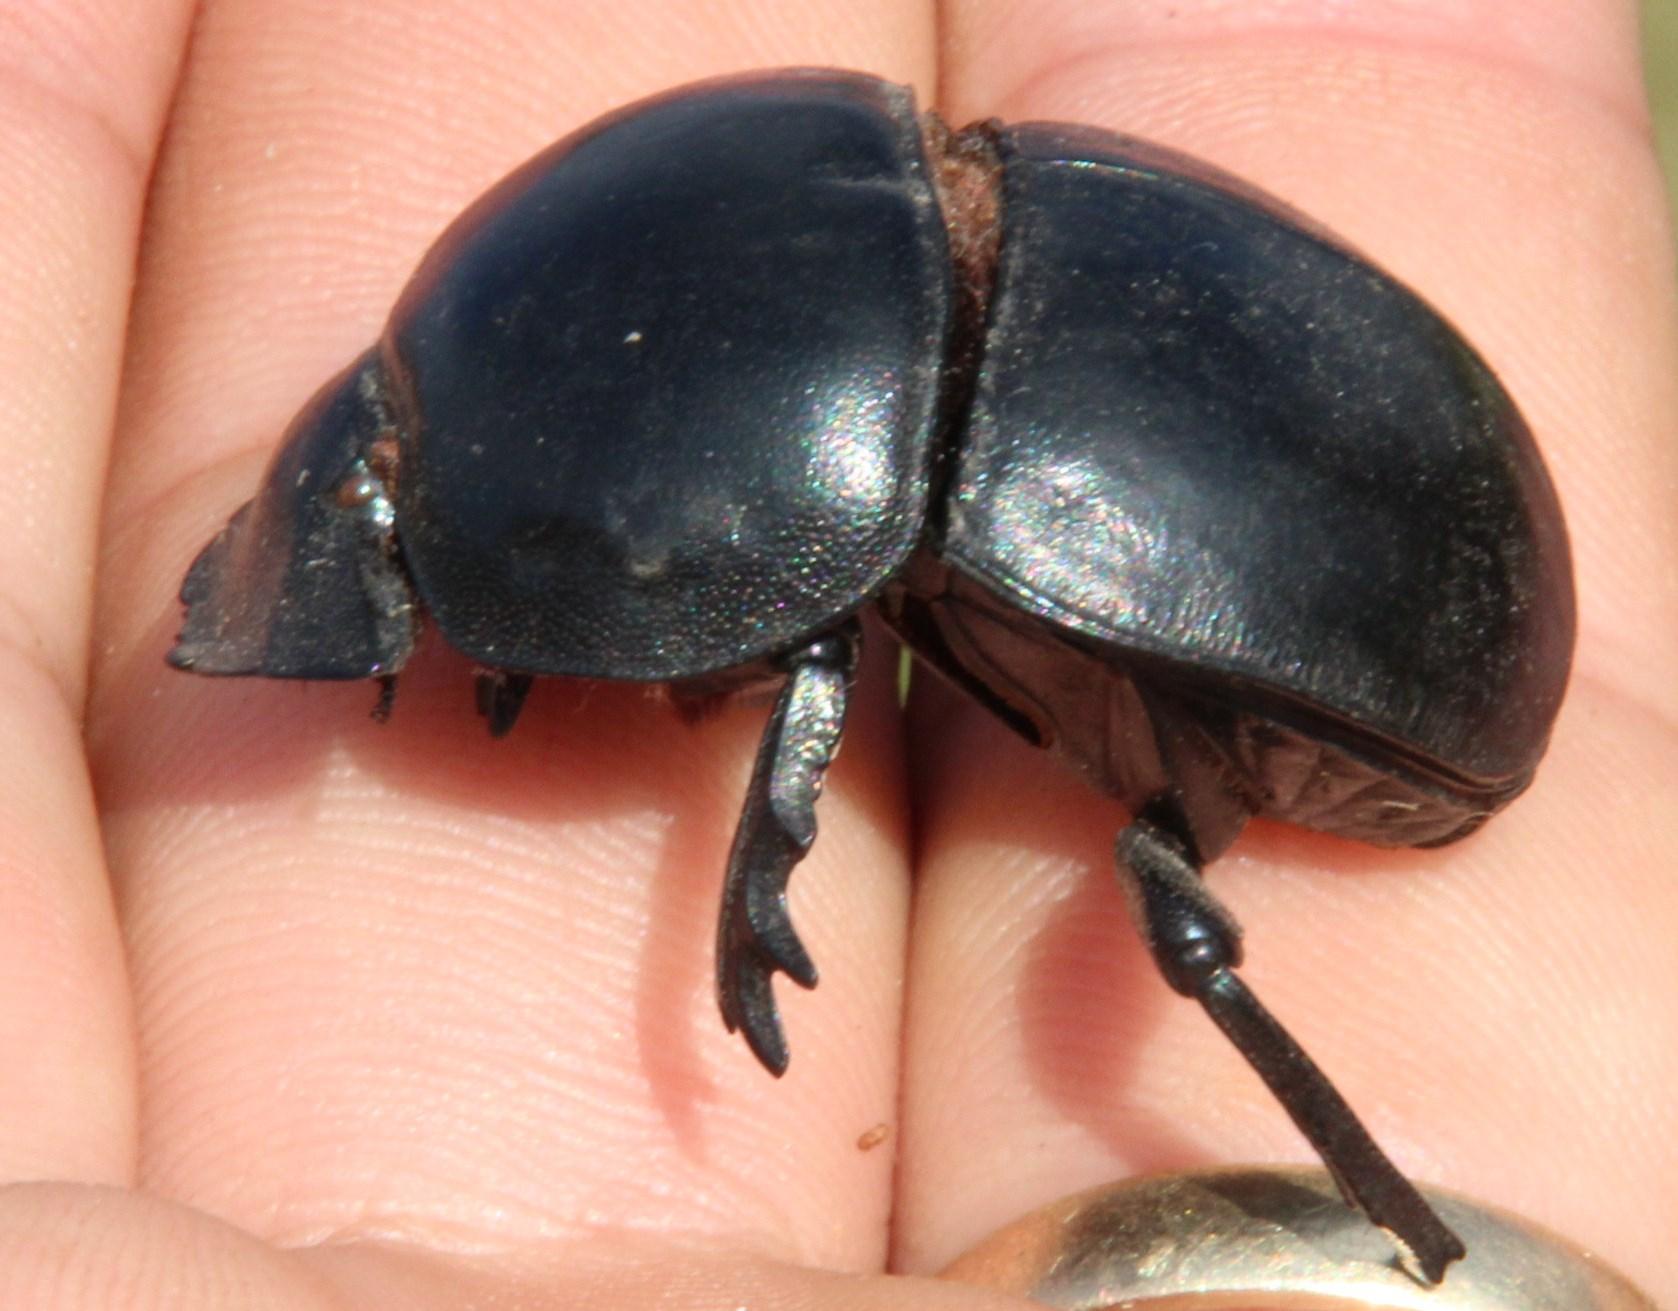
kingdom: Animalia
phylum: Arthropoda
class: Insecta
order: Coleoptera
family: Scarabaeidae
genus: Circellium
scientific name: Circellium bacchus
